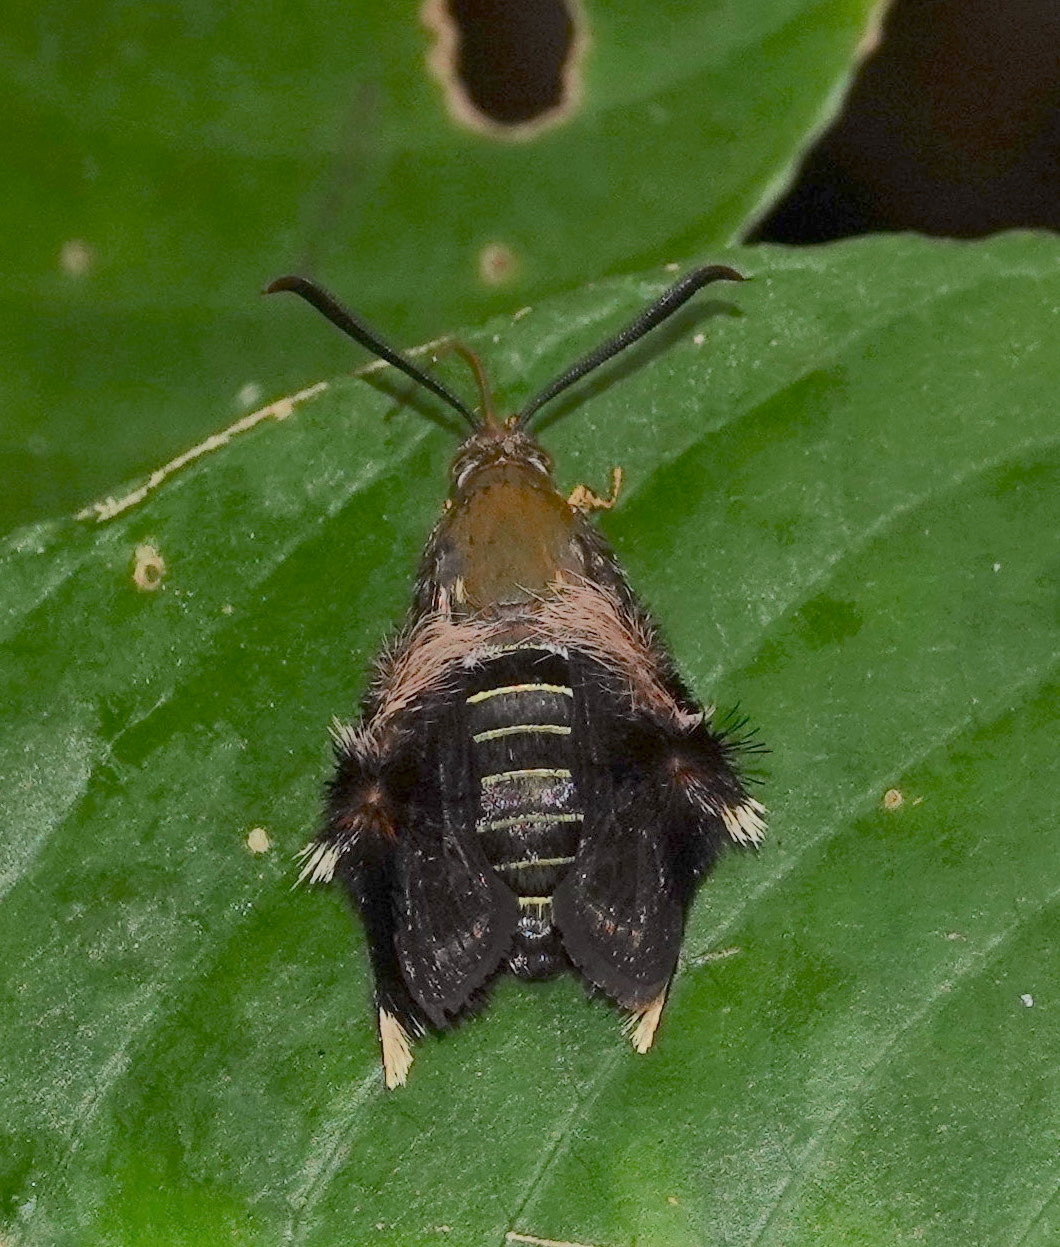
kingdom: Animalia
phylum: Arthropoda
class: Insecta
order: Lepidoptera
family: Sesiidae
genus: Melittia
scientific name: Melittia xanthopus
